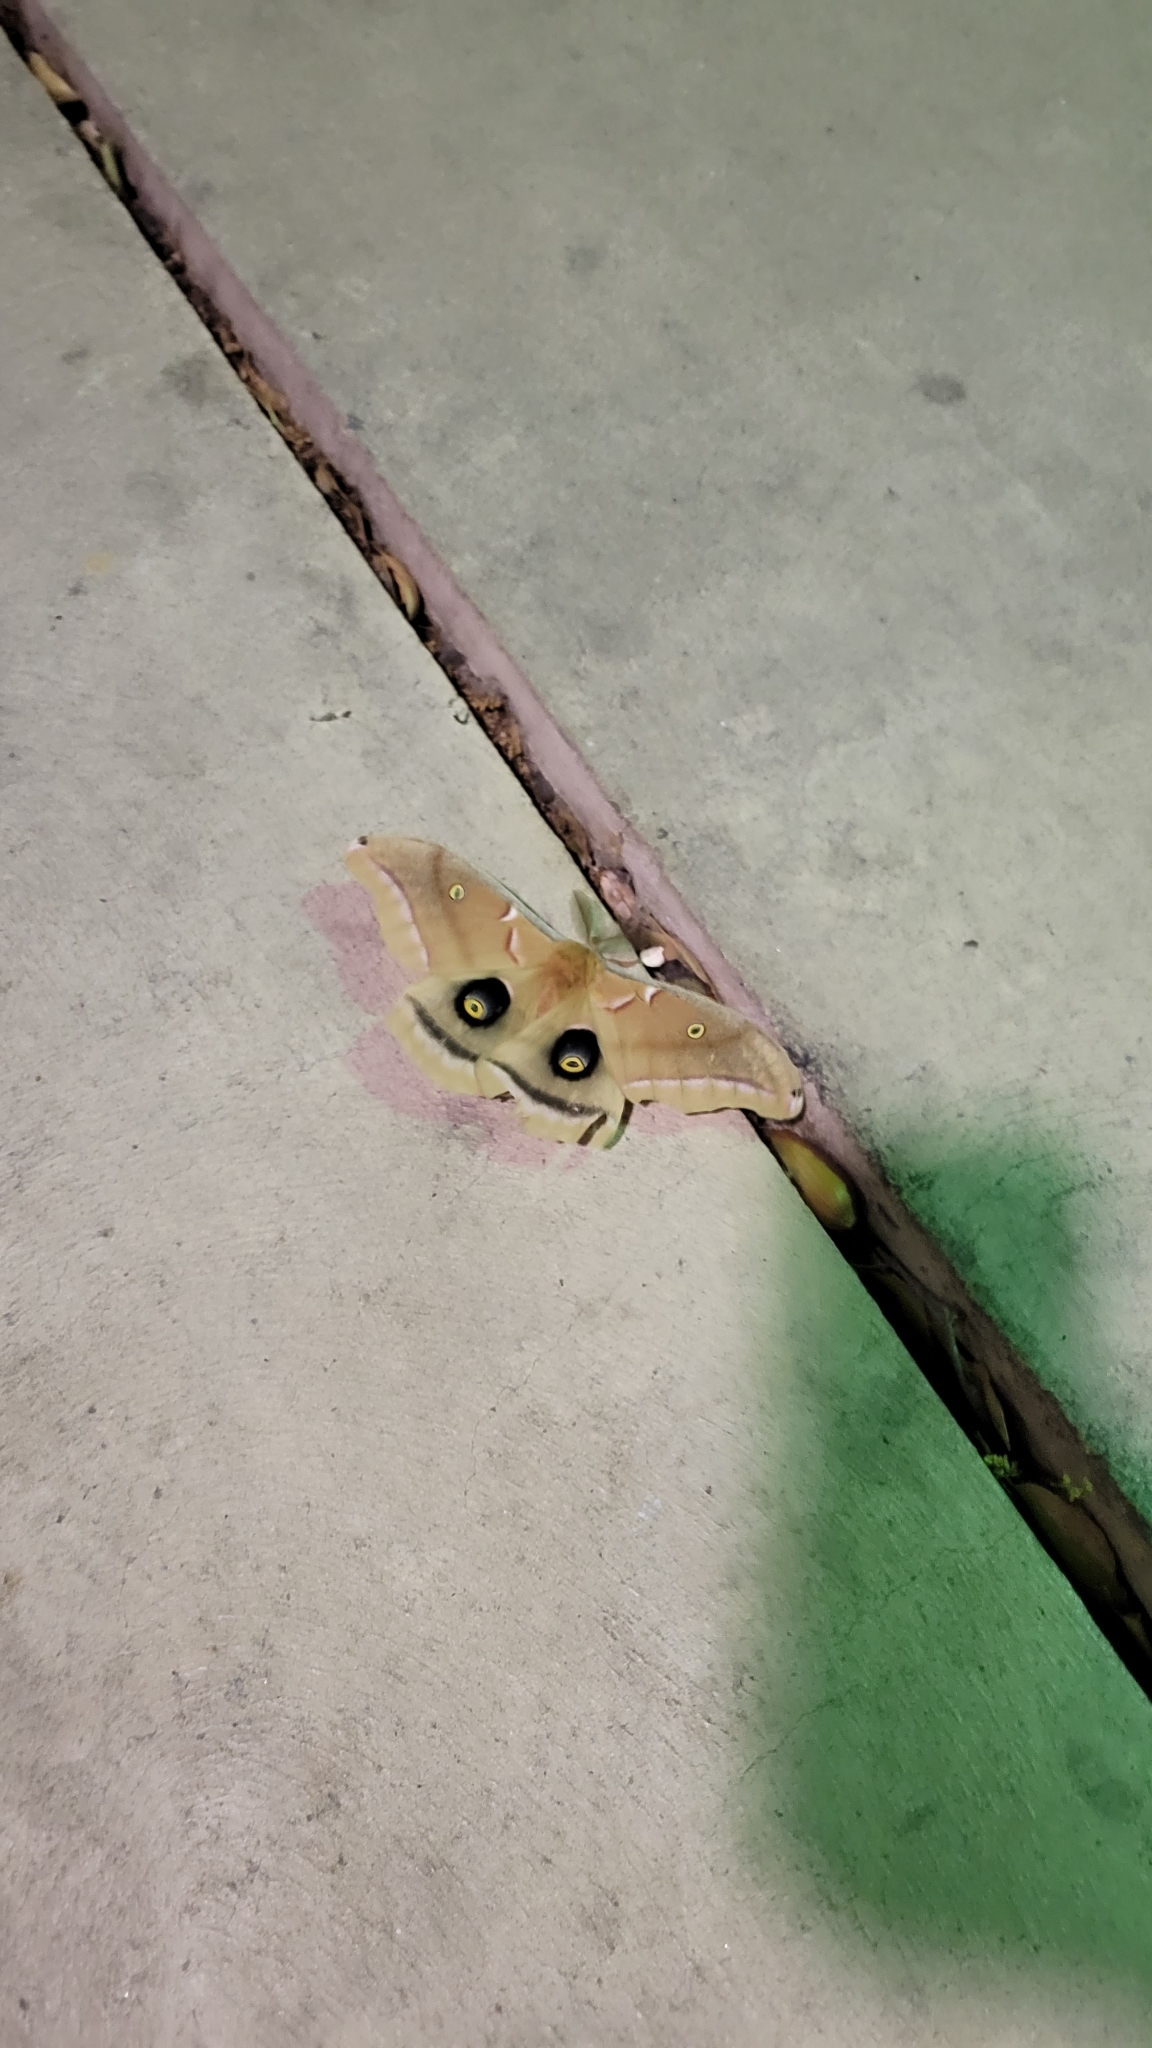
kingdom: Animalia
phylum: Arthropoda
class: Insecta
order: Lepidoptera
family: Saturniidae
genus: Antheraea
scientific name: Antheraea polyphemus
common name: Polyphemus moth
